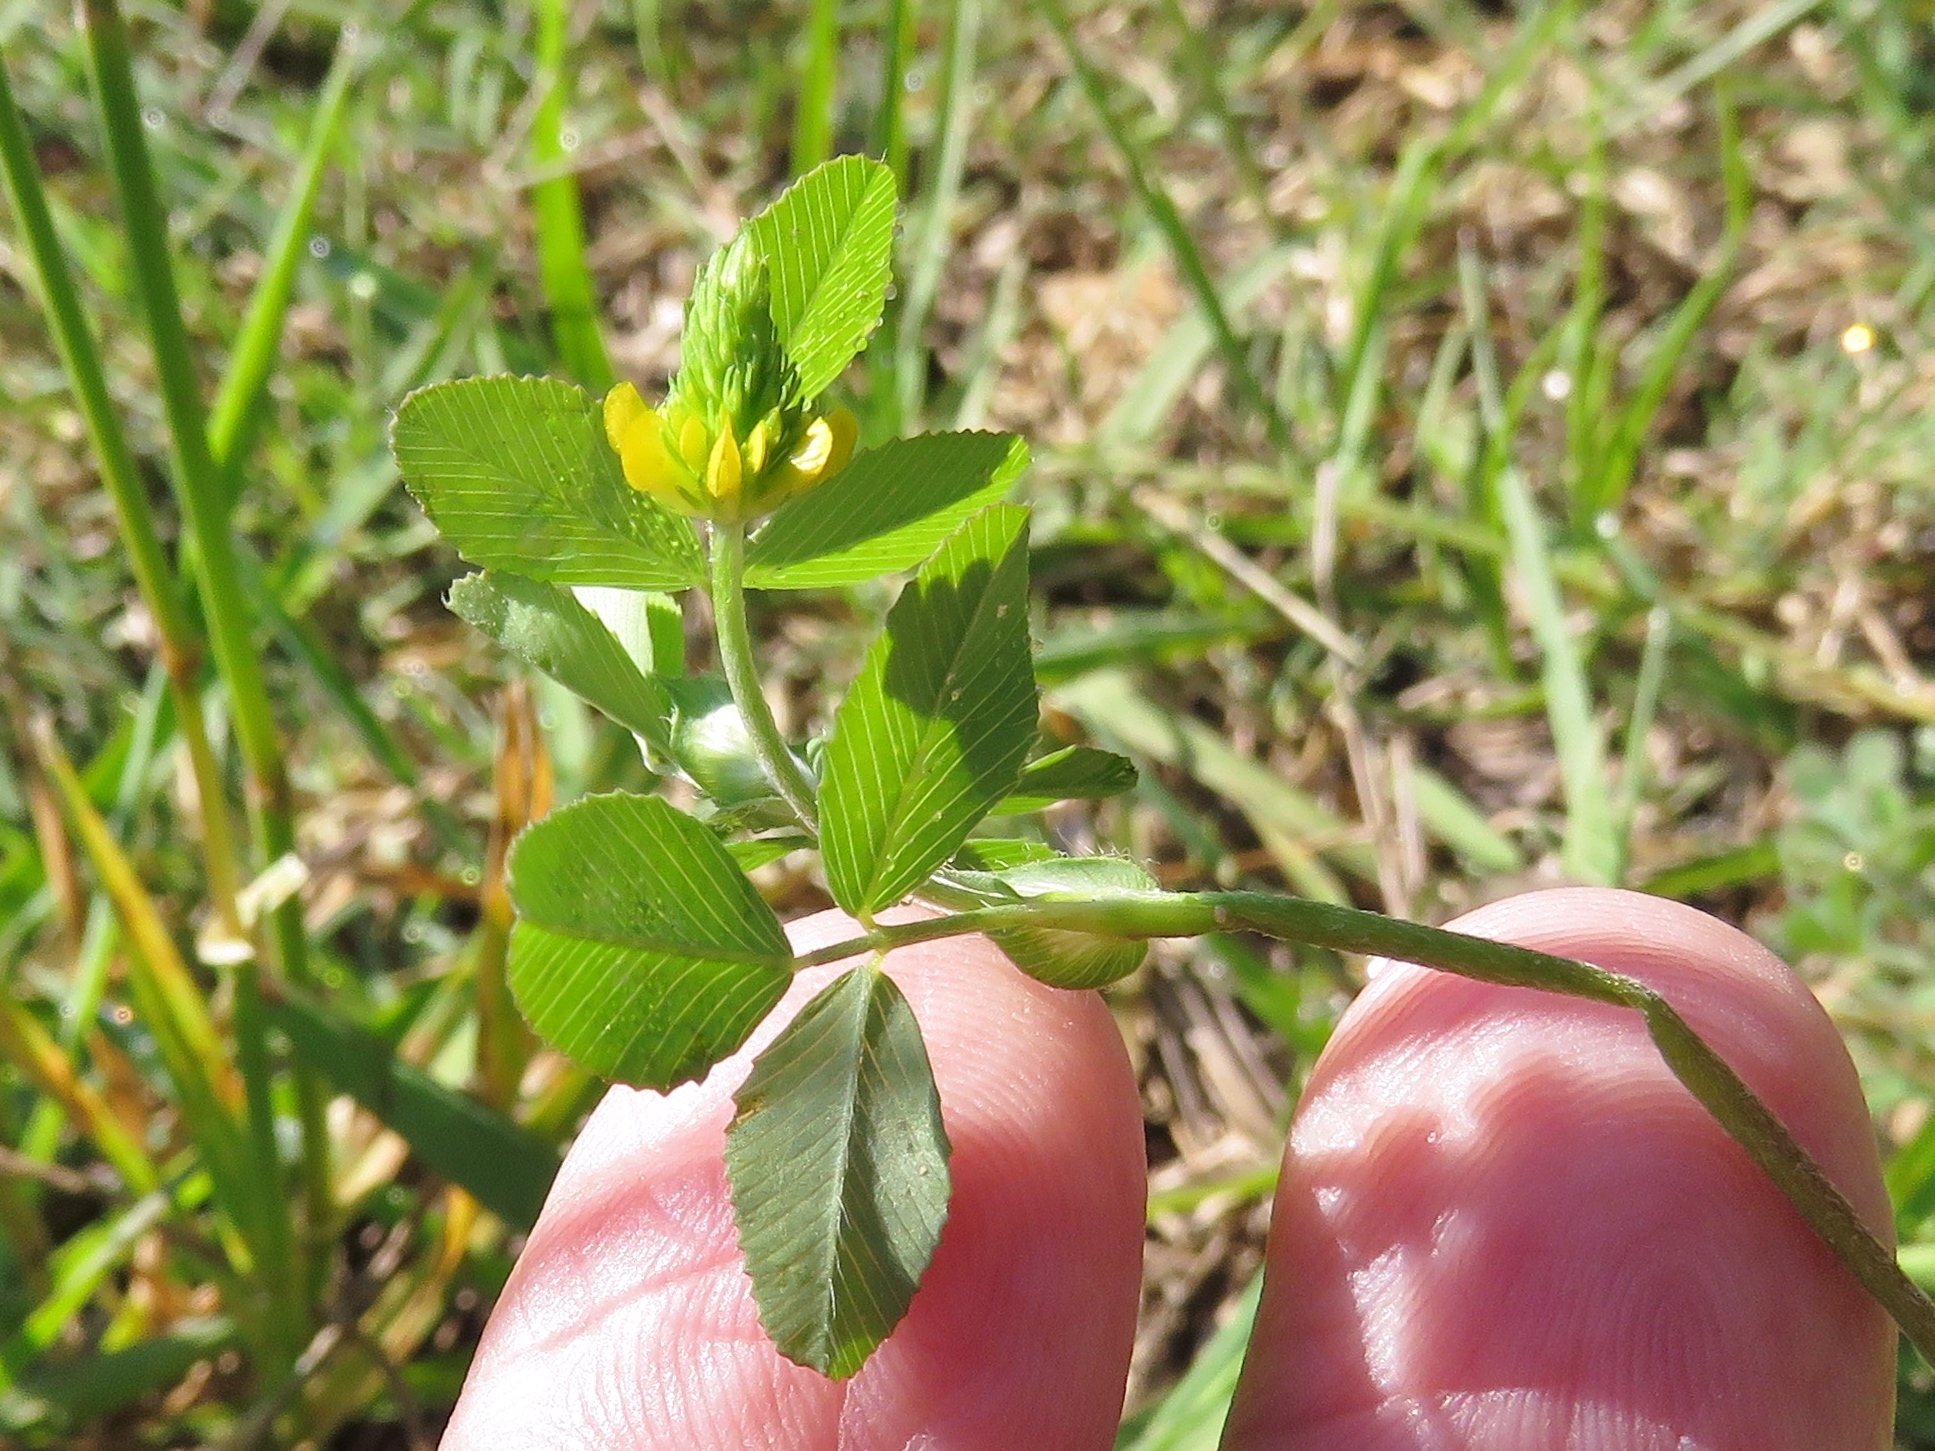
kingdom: Plantae
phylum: Tracheophyta
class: Magnoliopsida
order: Fabales
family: Fabaceae
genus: Trifolium
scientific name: Trifolium campestre
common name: Field clover
